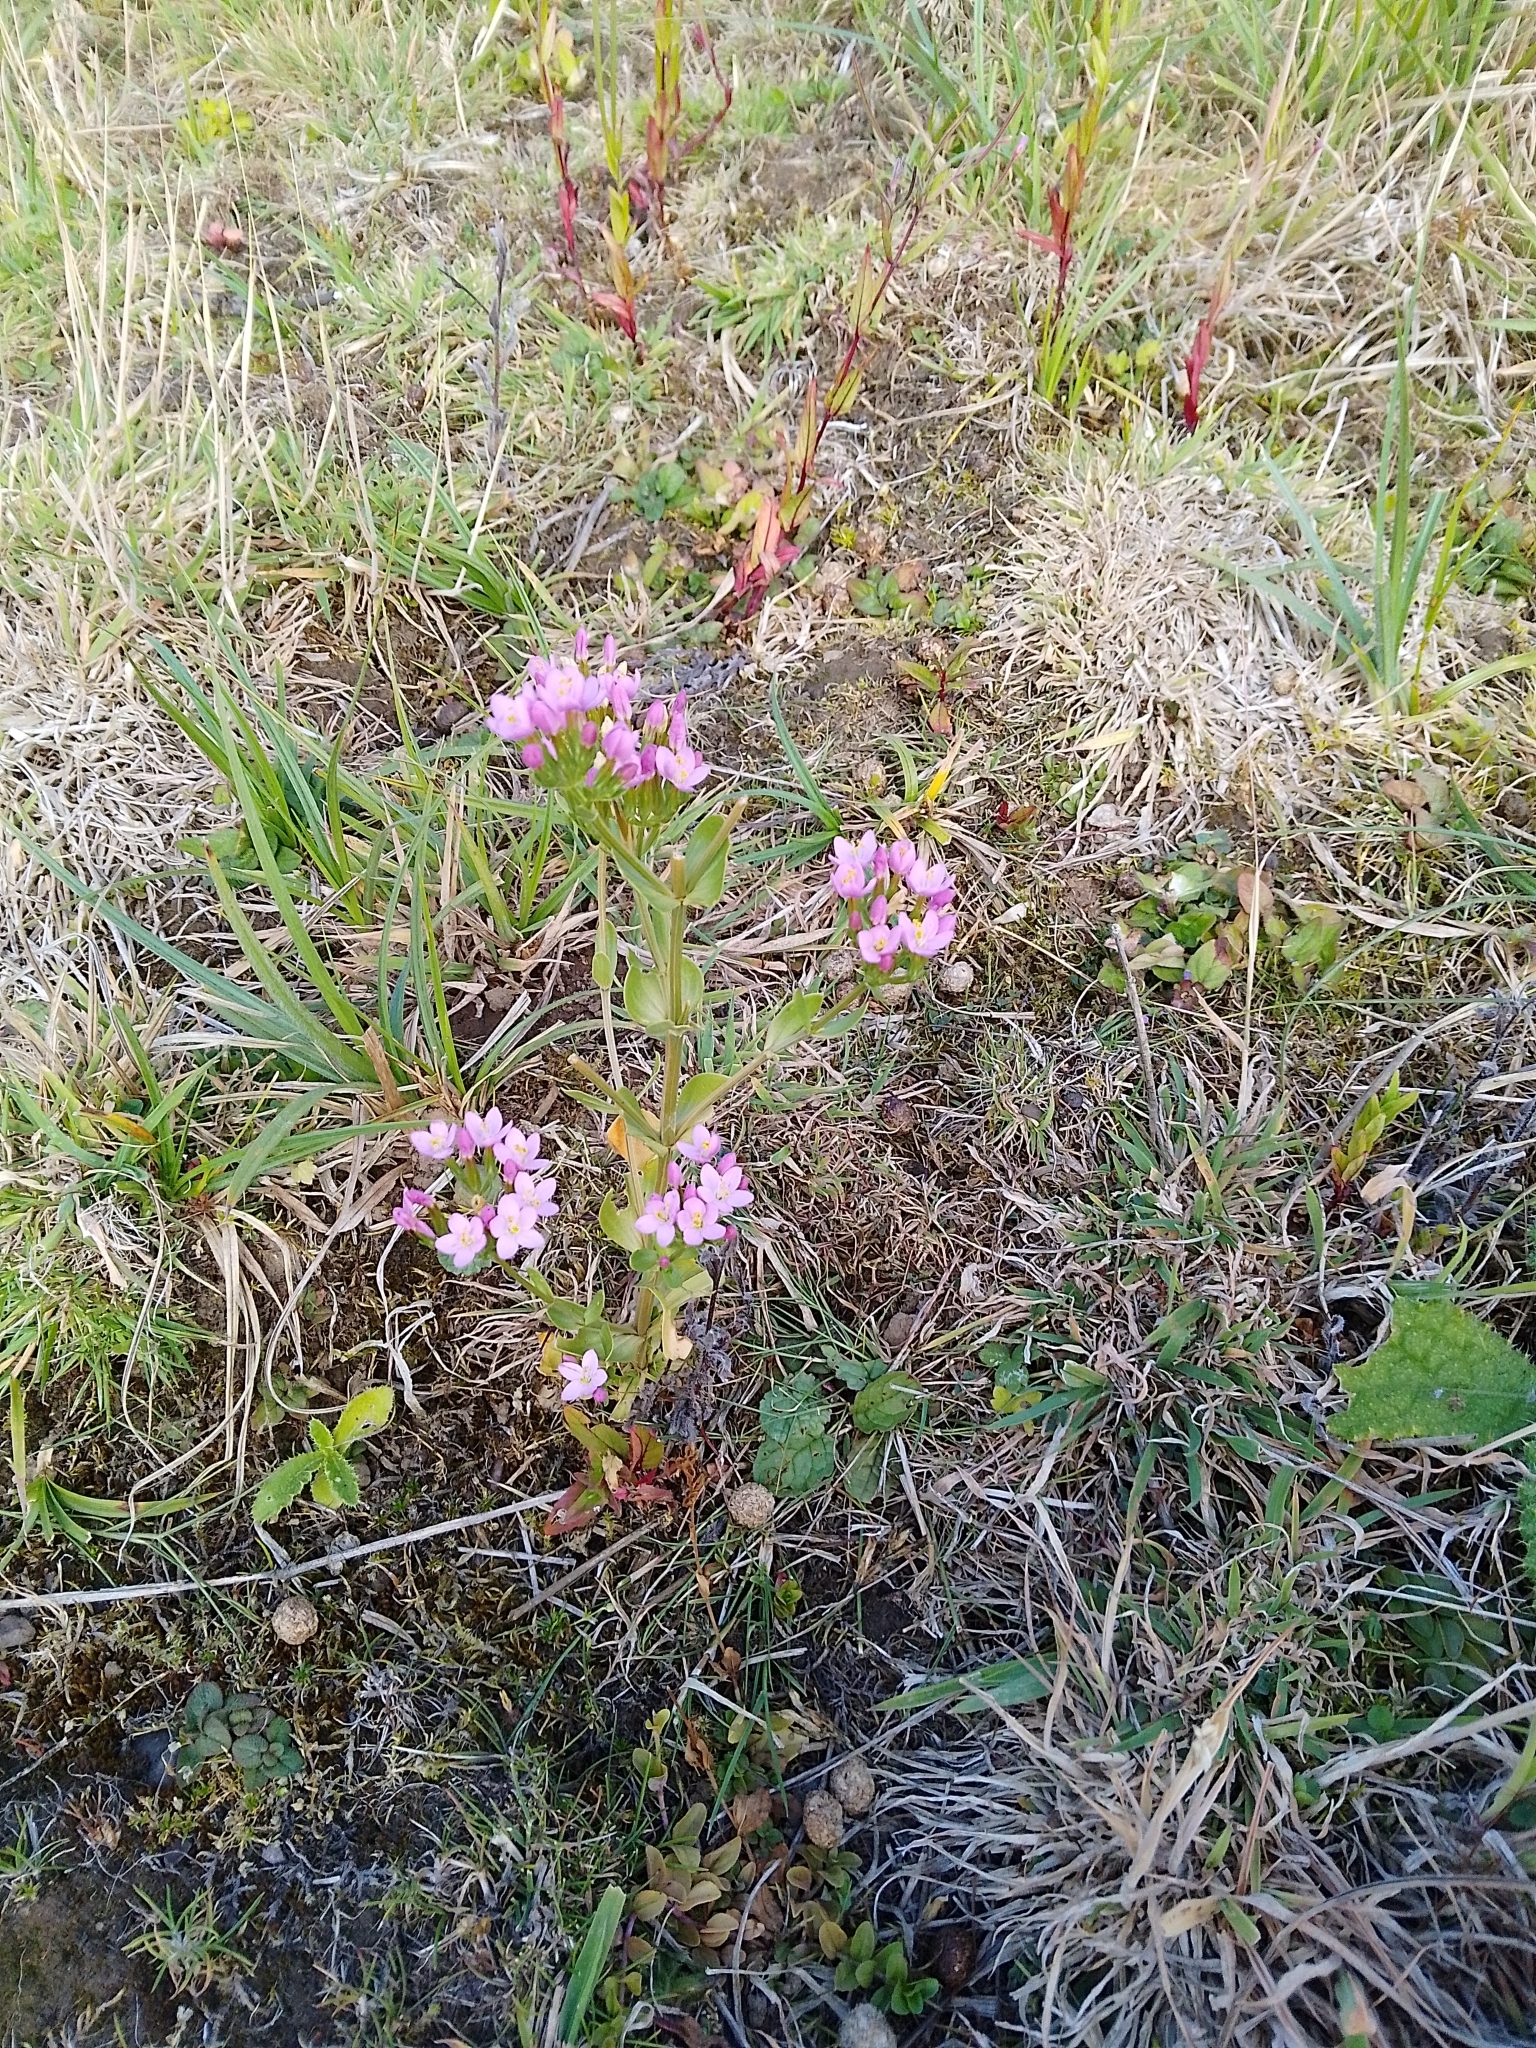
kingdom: Plantae
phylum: Tracheophyta
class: Magnoliopsida
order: Gentianales
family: Gentianaceae
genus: Centaurium
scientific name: Centaurium erythraea
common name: Common centaury
